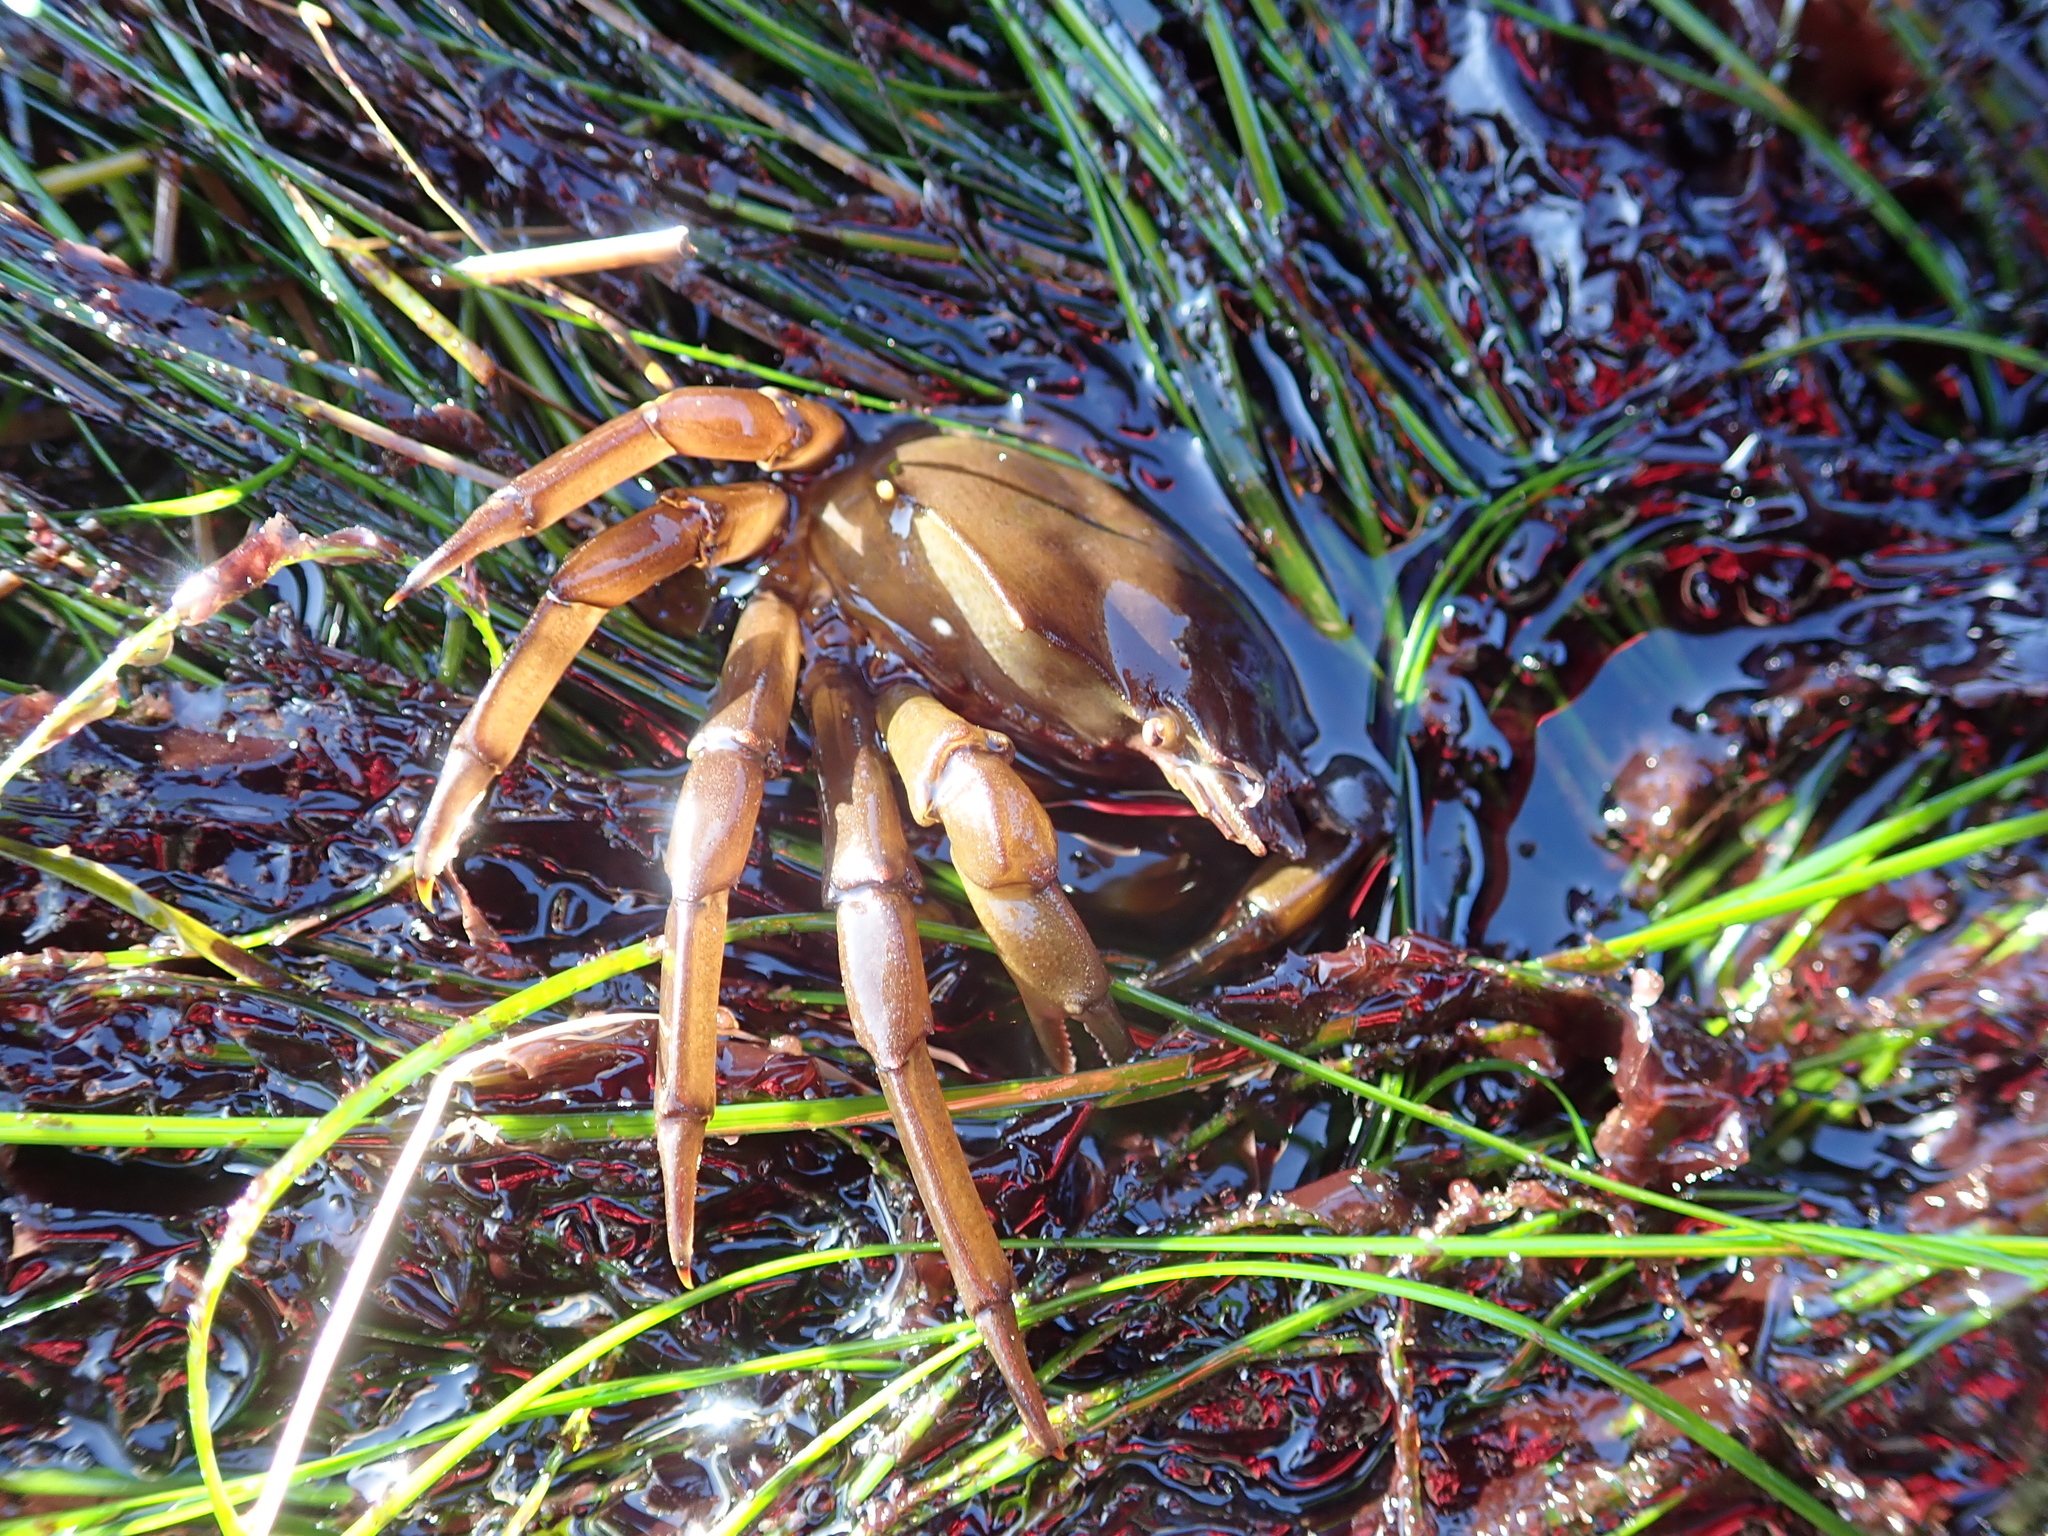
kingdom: Animalia
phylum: Arthropoda
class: Malacostraca
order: Decapoda
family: Epialtidae
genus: Pugettia
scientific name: Pugettia producta
